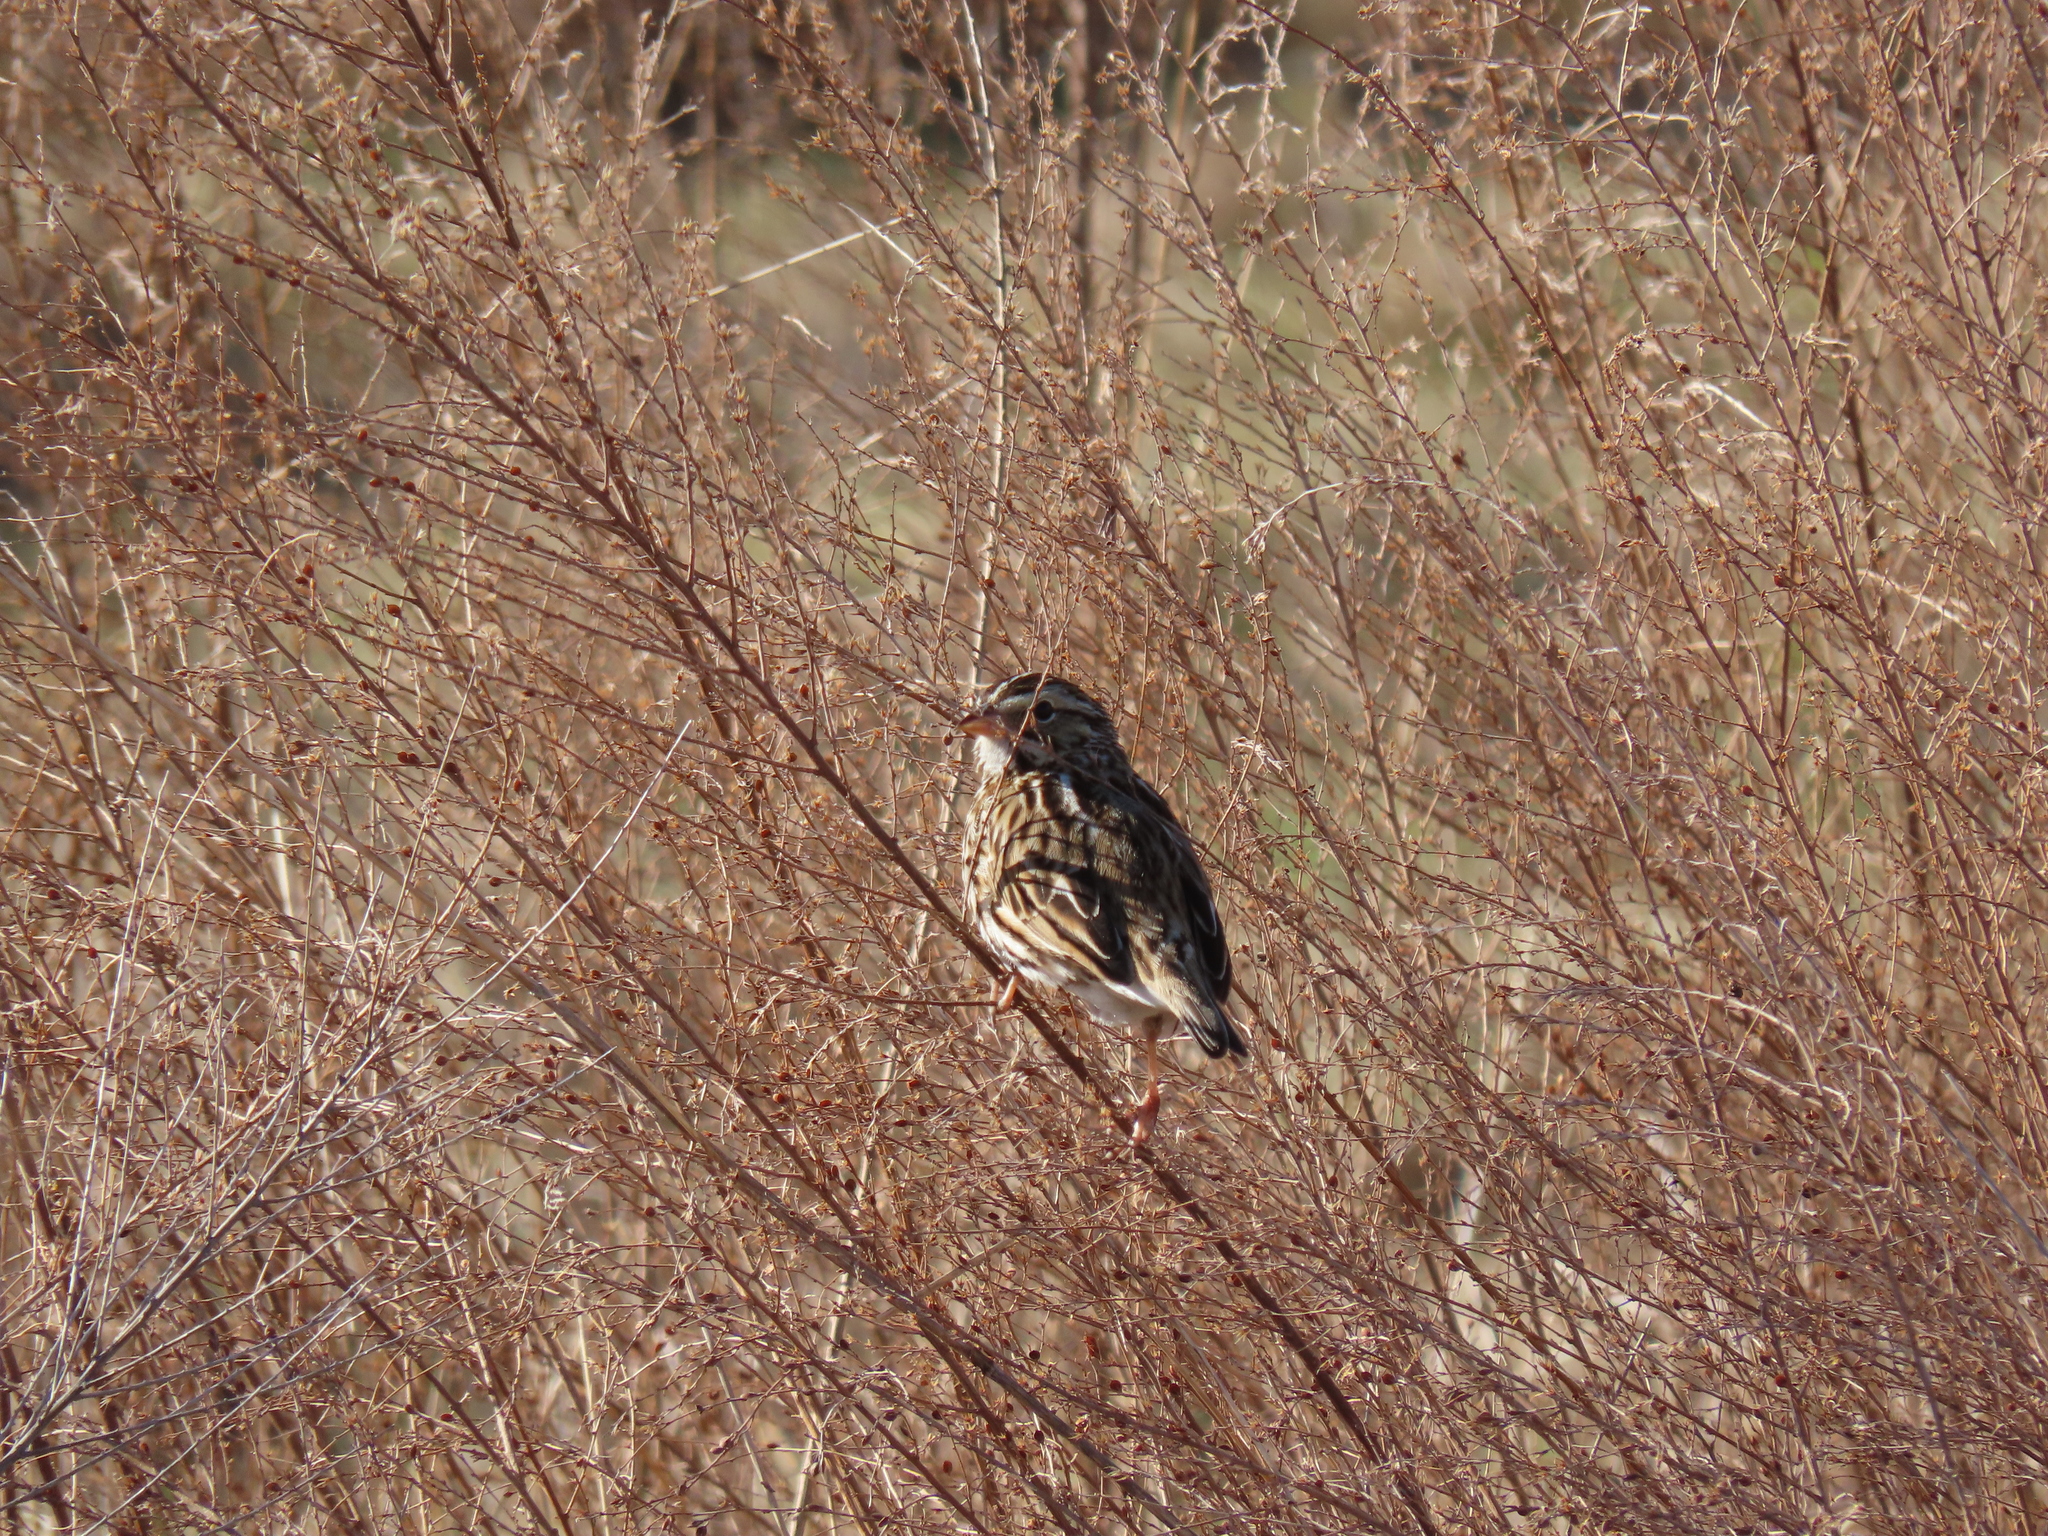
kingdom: Animalia
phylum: Chordata
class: Aves
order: Passeriformes
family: Passerellidae
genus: Passerculus
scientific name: Passerculus sandwichensis
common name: Savannah sparrow
